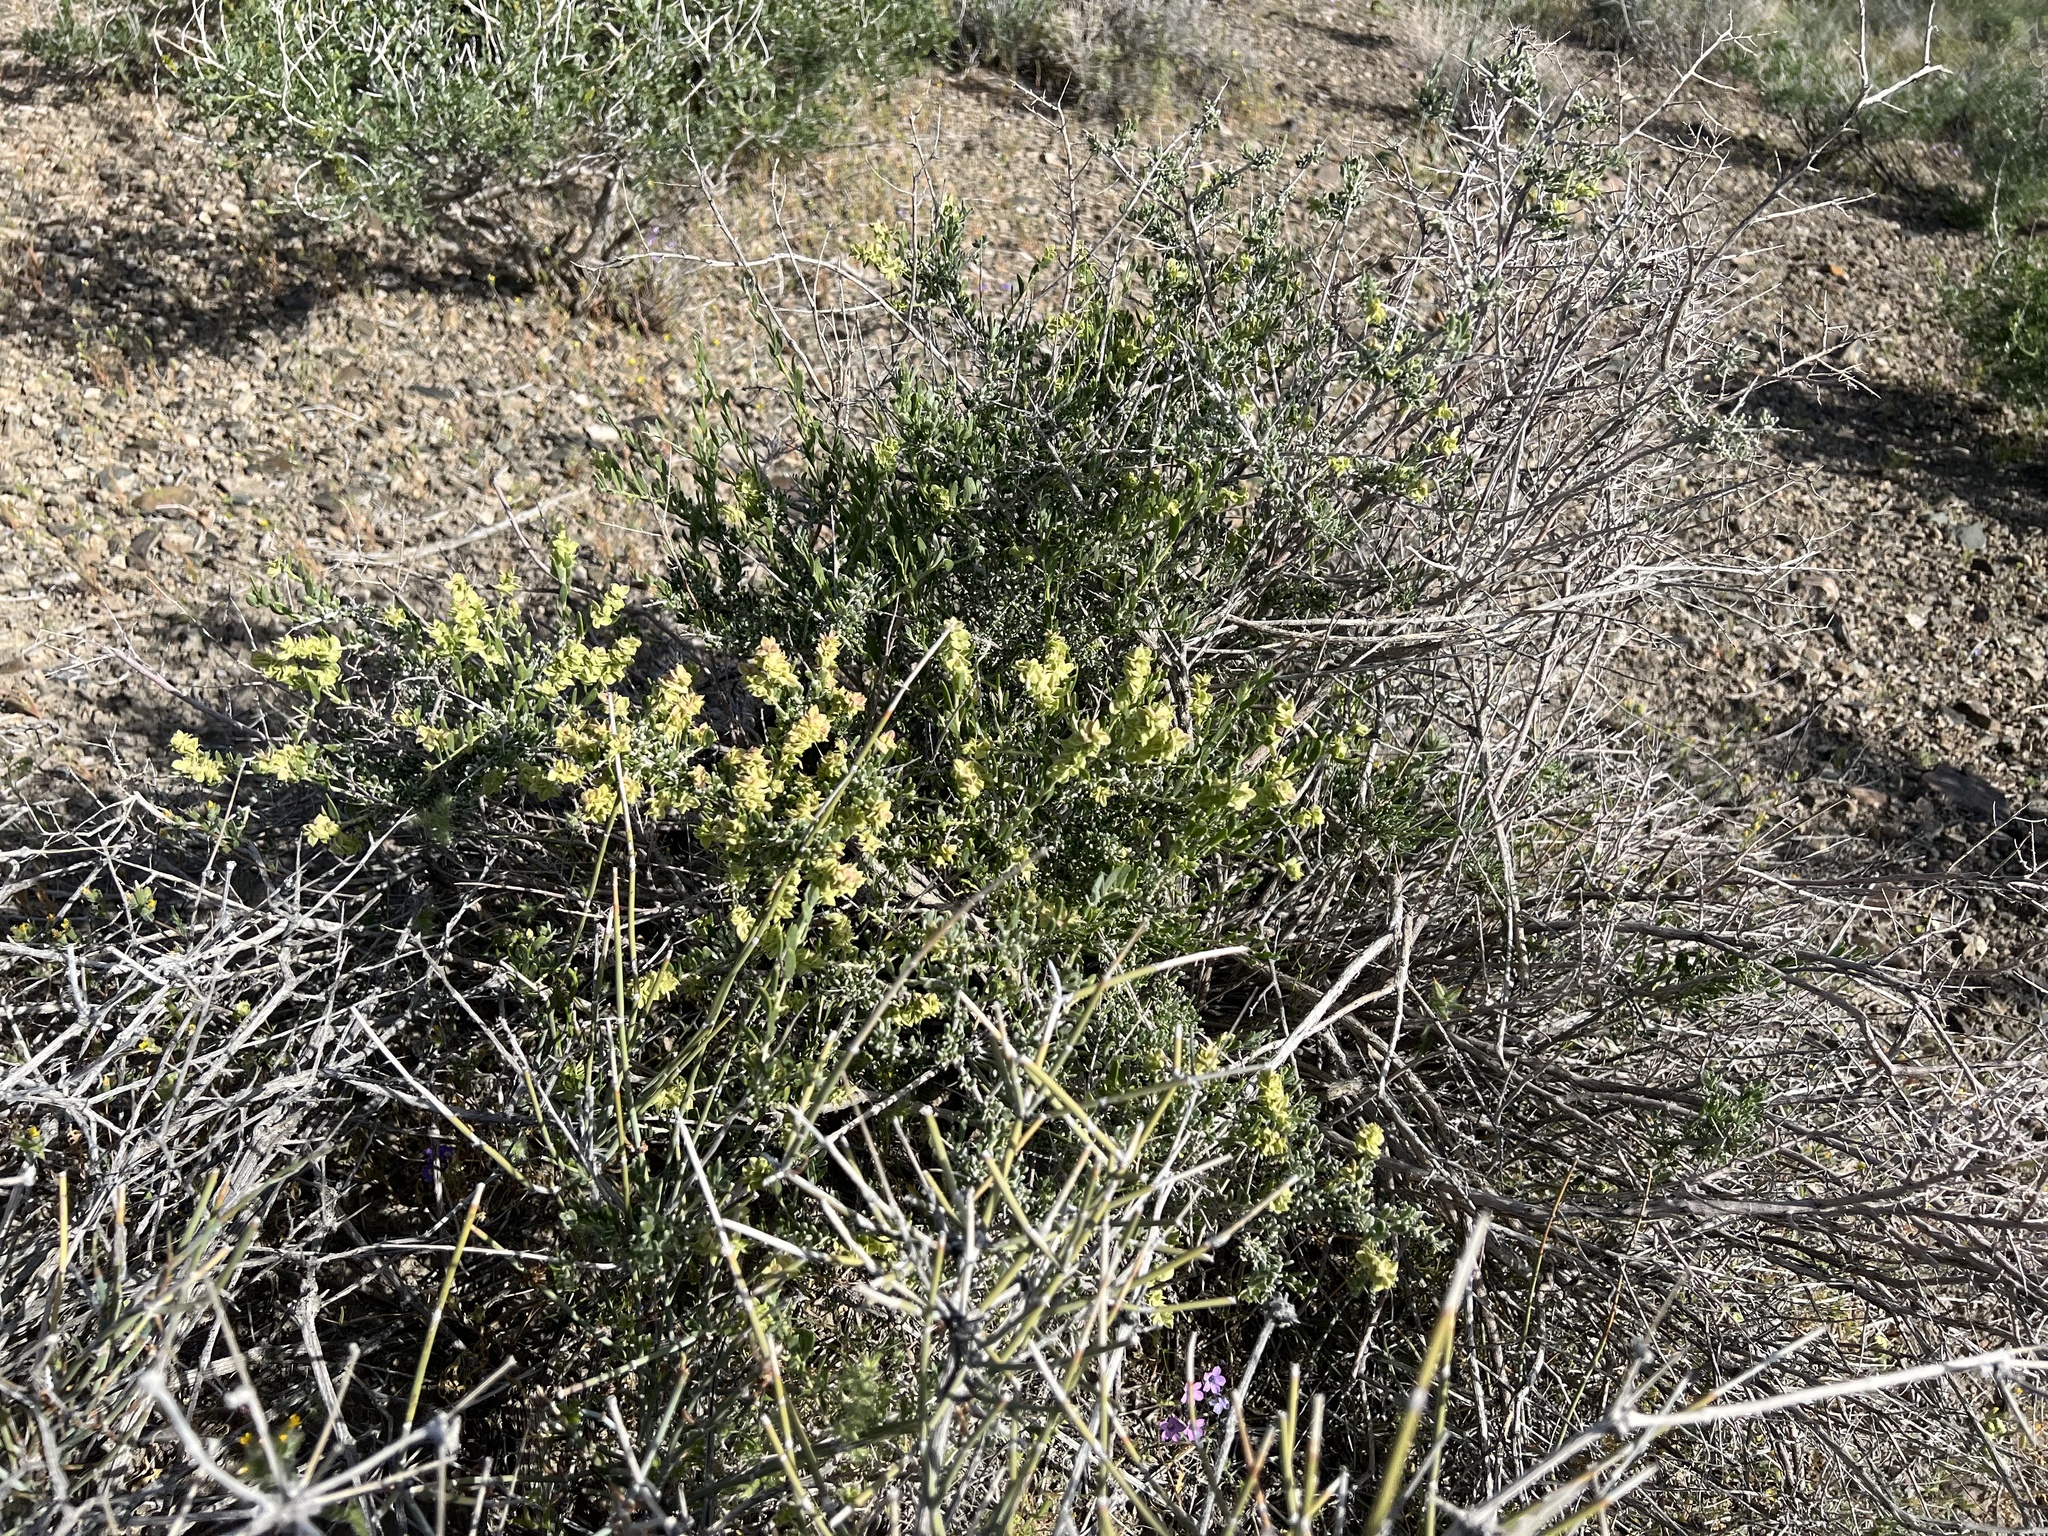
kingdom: Plantae
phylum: Tracheophyta
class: Magnoliopsida
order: Caryophyllales
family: Amaranthaceae
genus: Grayia
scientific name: Grayia spinosa
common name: Spiny hopsage
